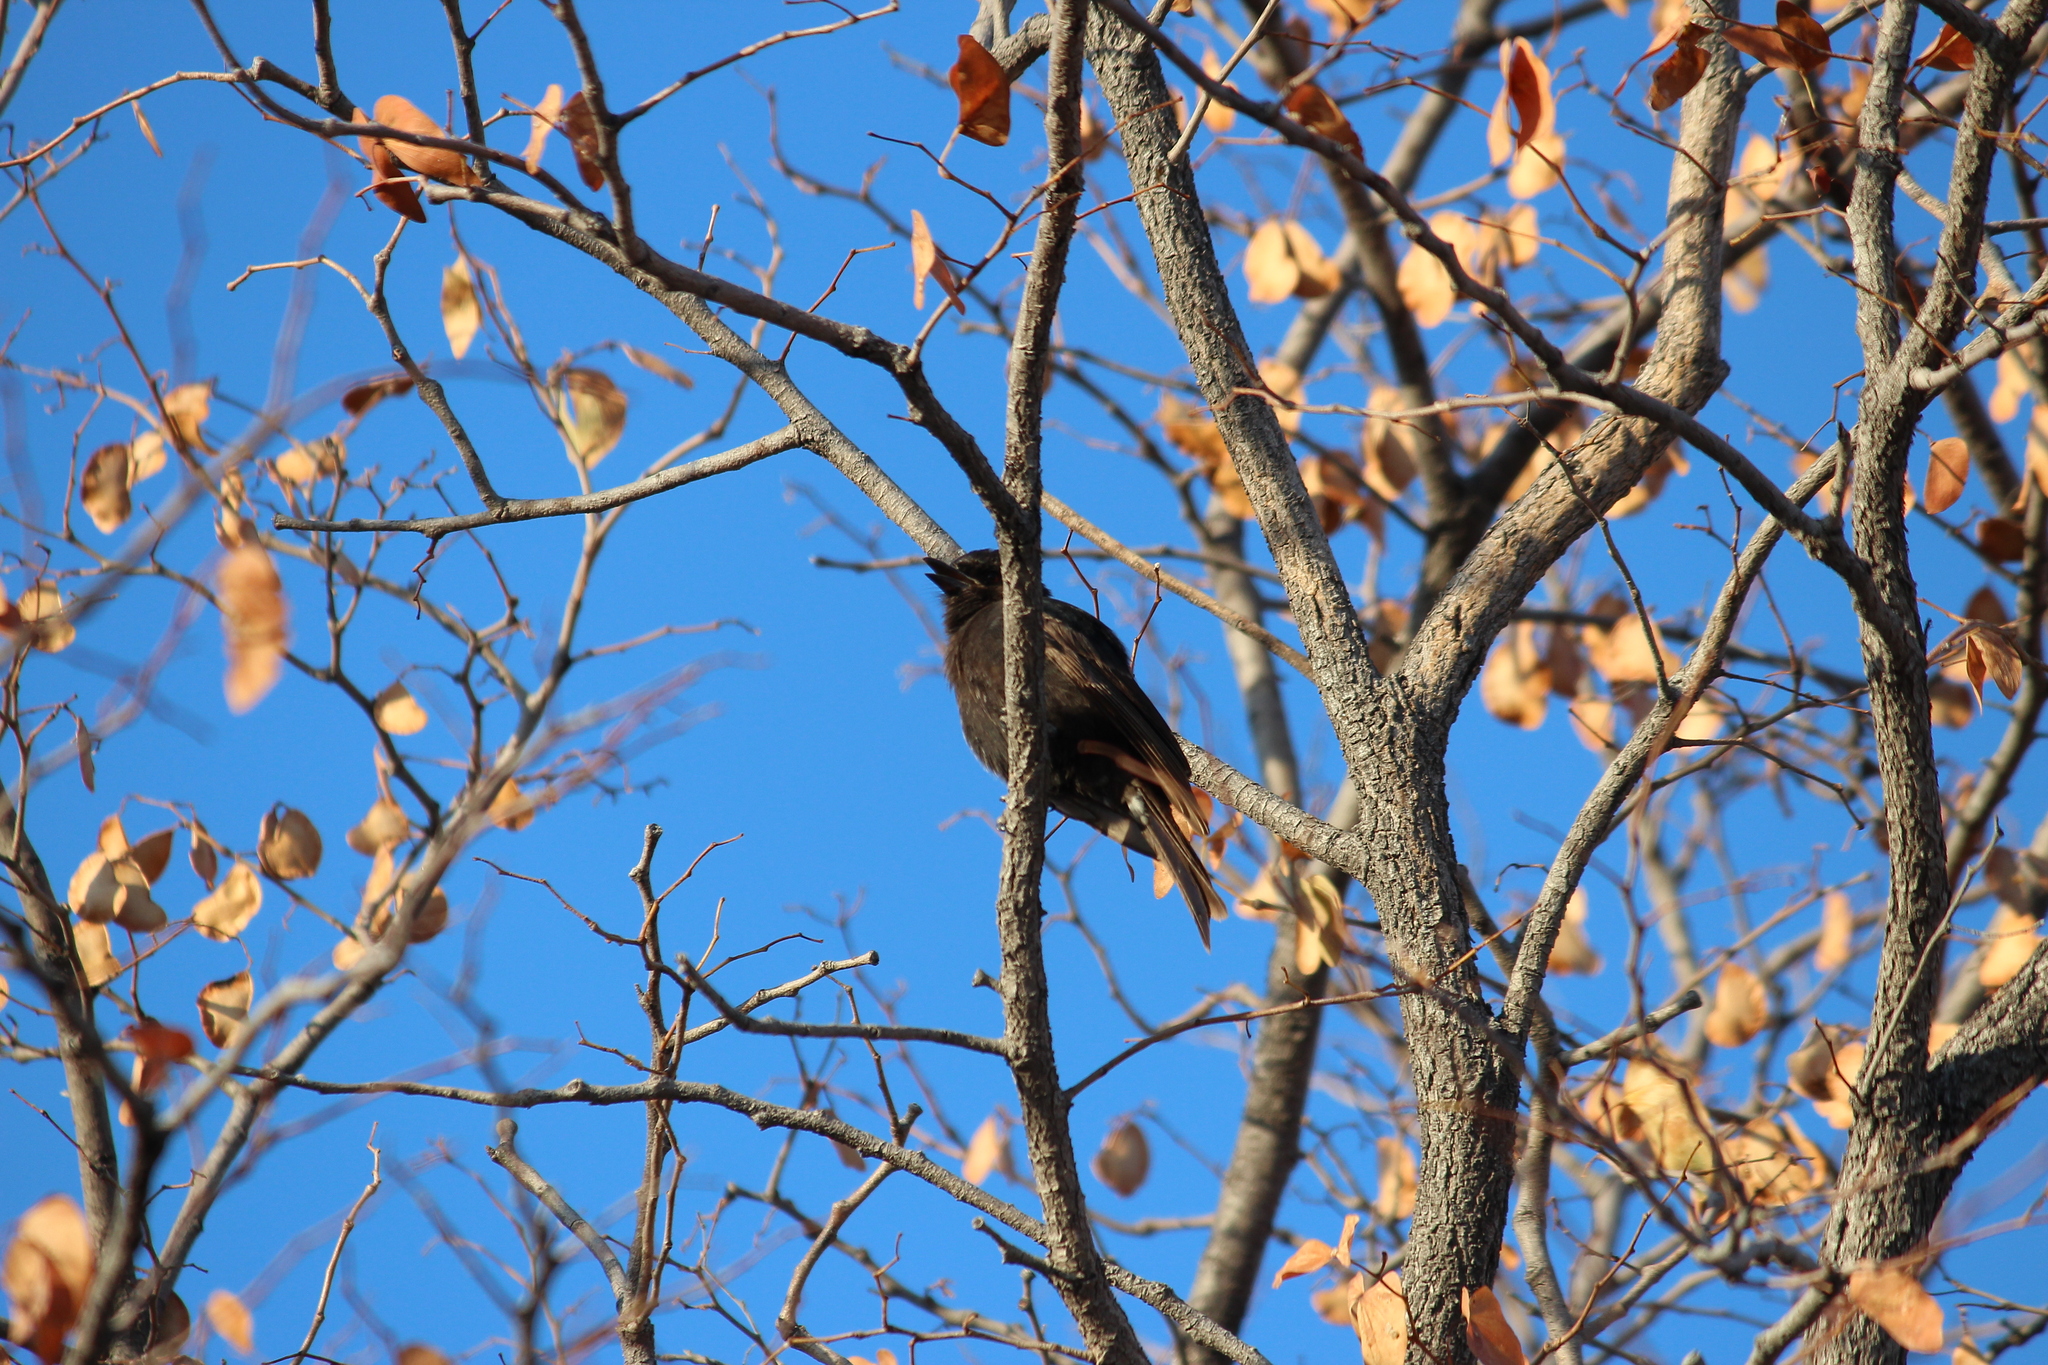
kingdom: Animalia
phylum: Chordata
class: Aves
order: Passeriformes
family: Dicruridae
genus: Dicrurus
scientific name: Dicrurus adsimilis
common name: Fork-tailed drongo
